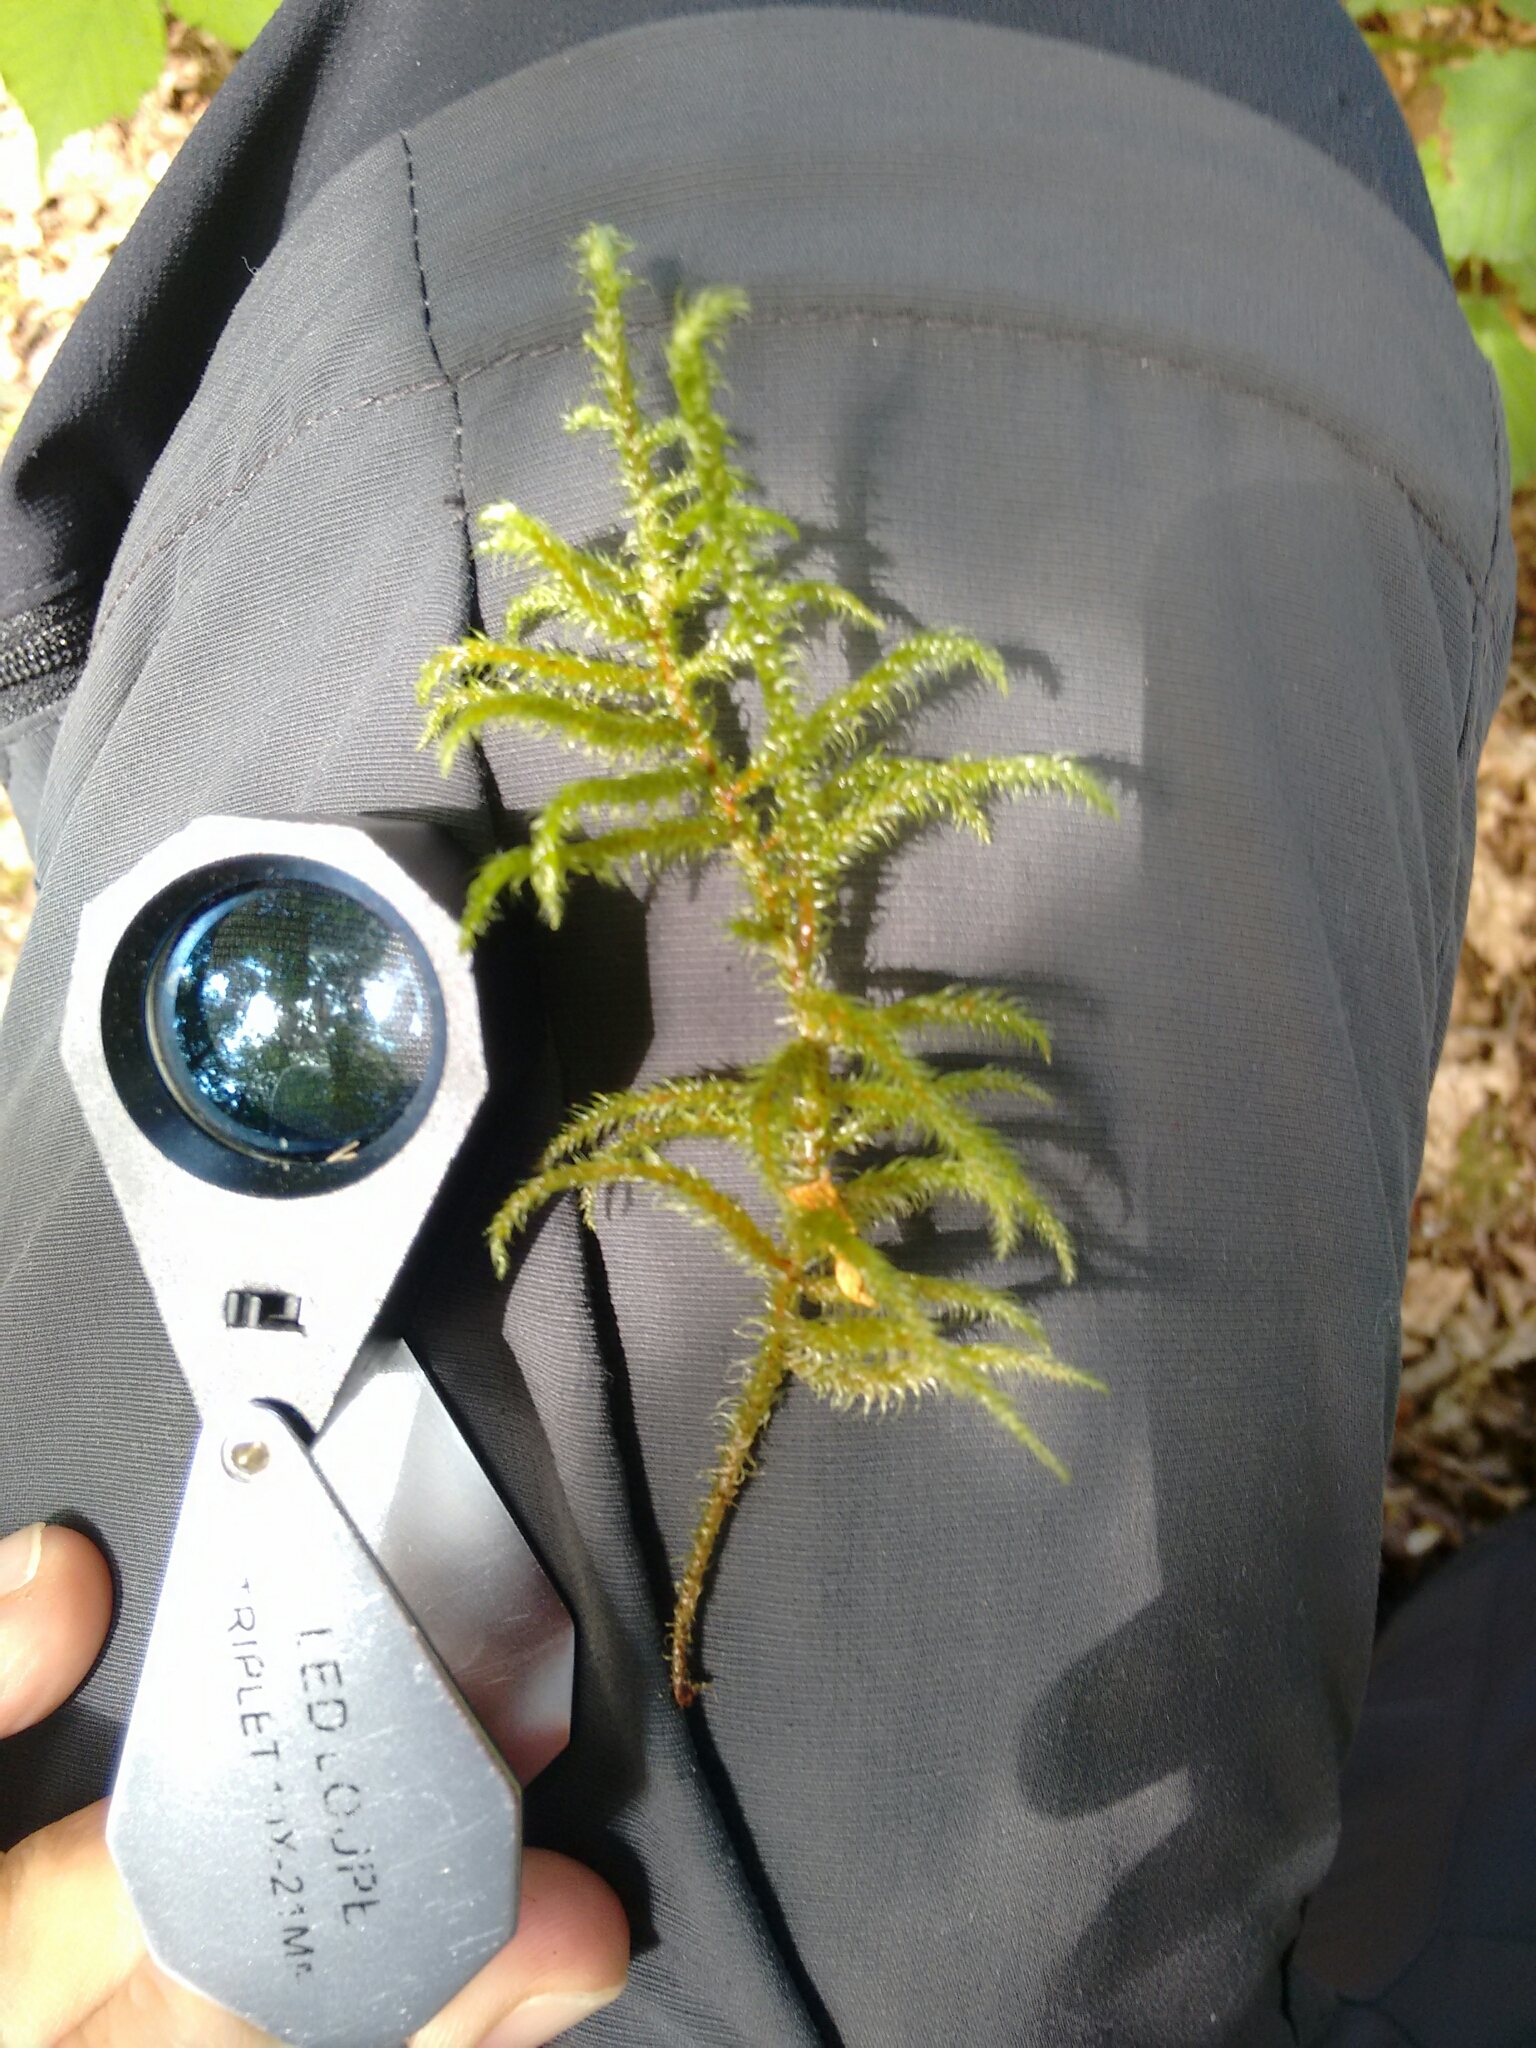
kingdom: Plantae
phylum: Bryophyta
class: Bryopsida
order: Hypnales
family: Hylocomiaceae
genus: Rhytidiadelphus
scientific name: Rhytidiadelphus loreus
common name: Lanky moss
